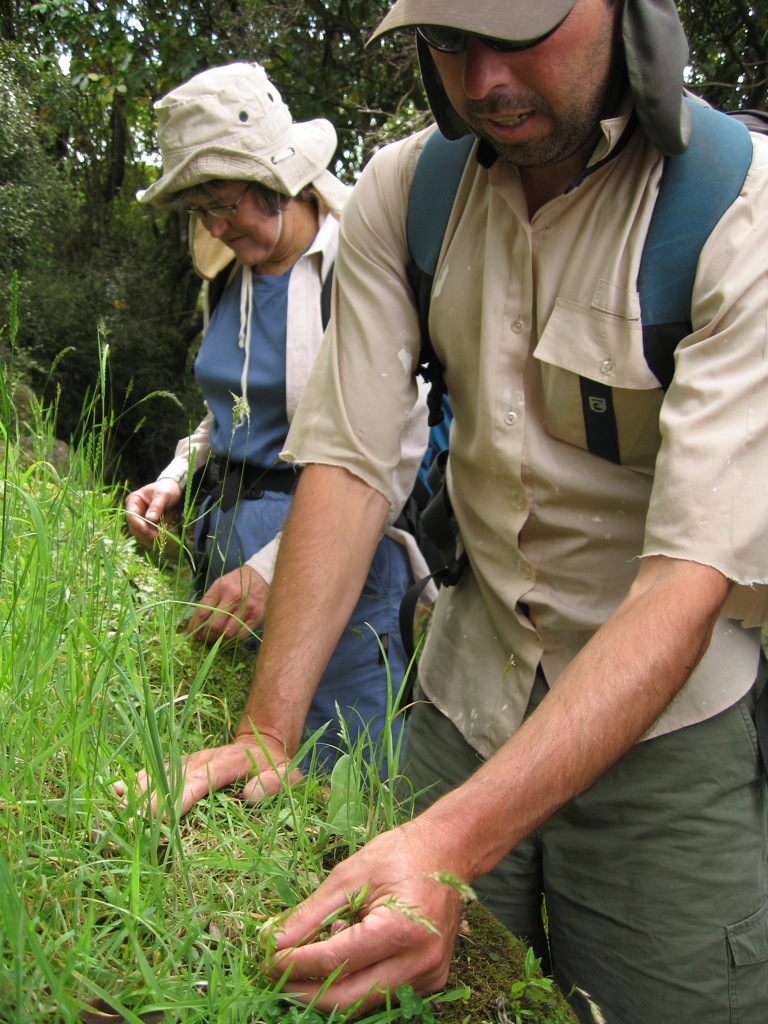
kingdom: Plantae
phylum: Tracheophyta
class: Magnoliopsida
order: Asterales
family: Asteraceae
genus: Craspedia
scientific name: Craspedia minor
